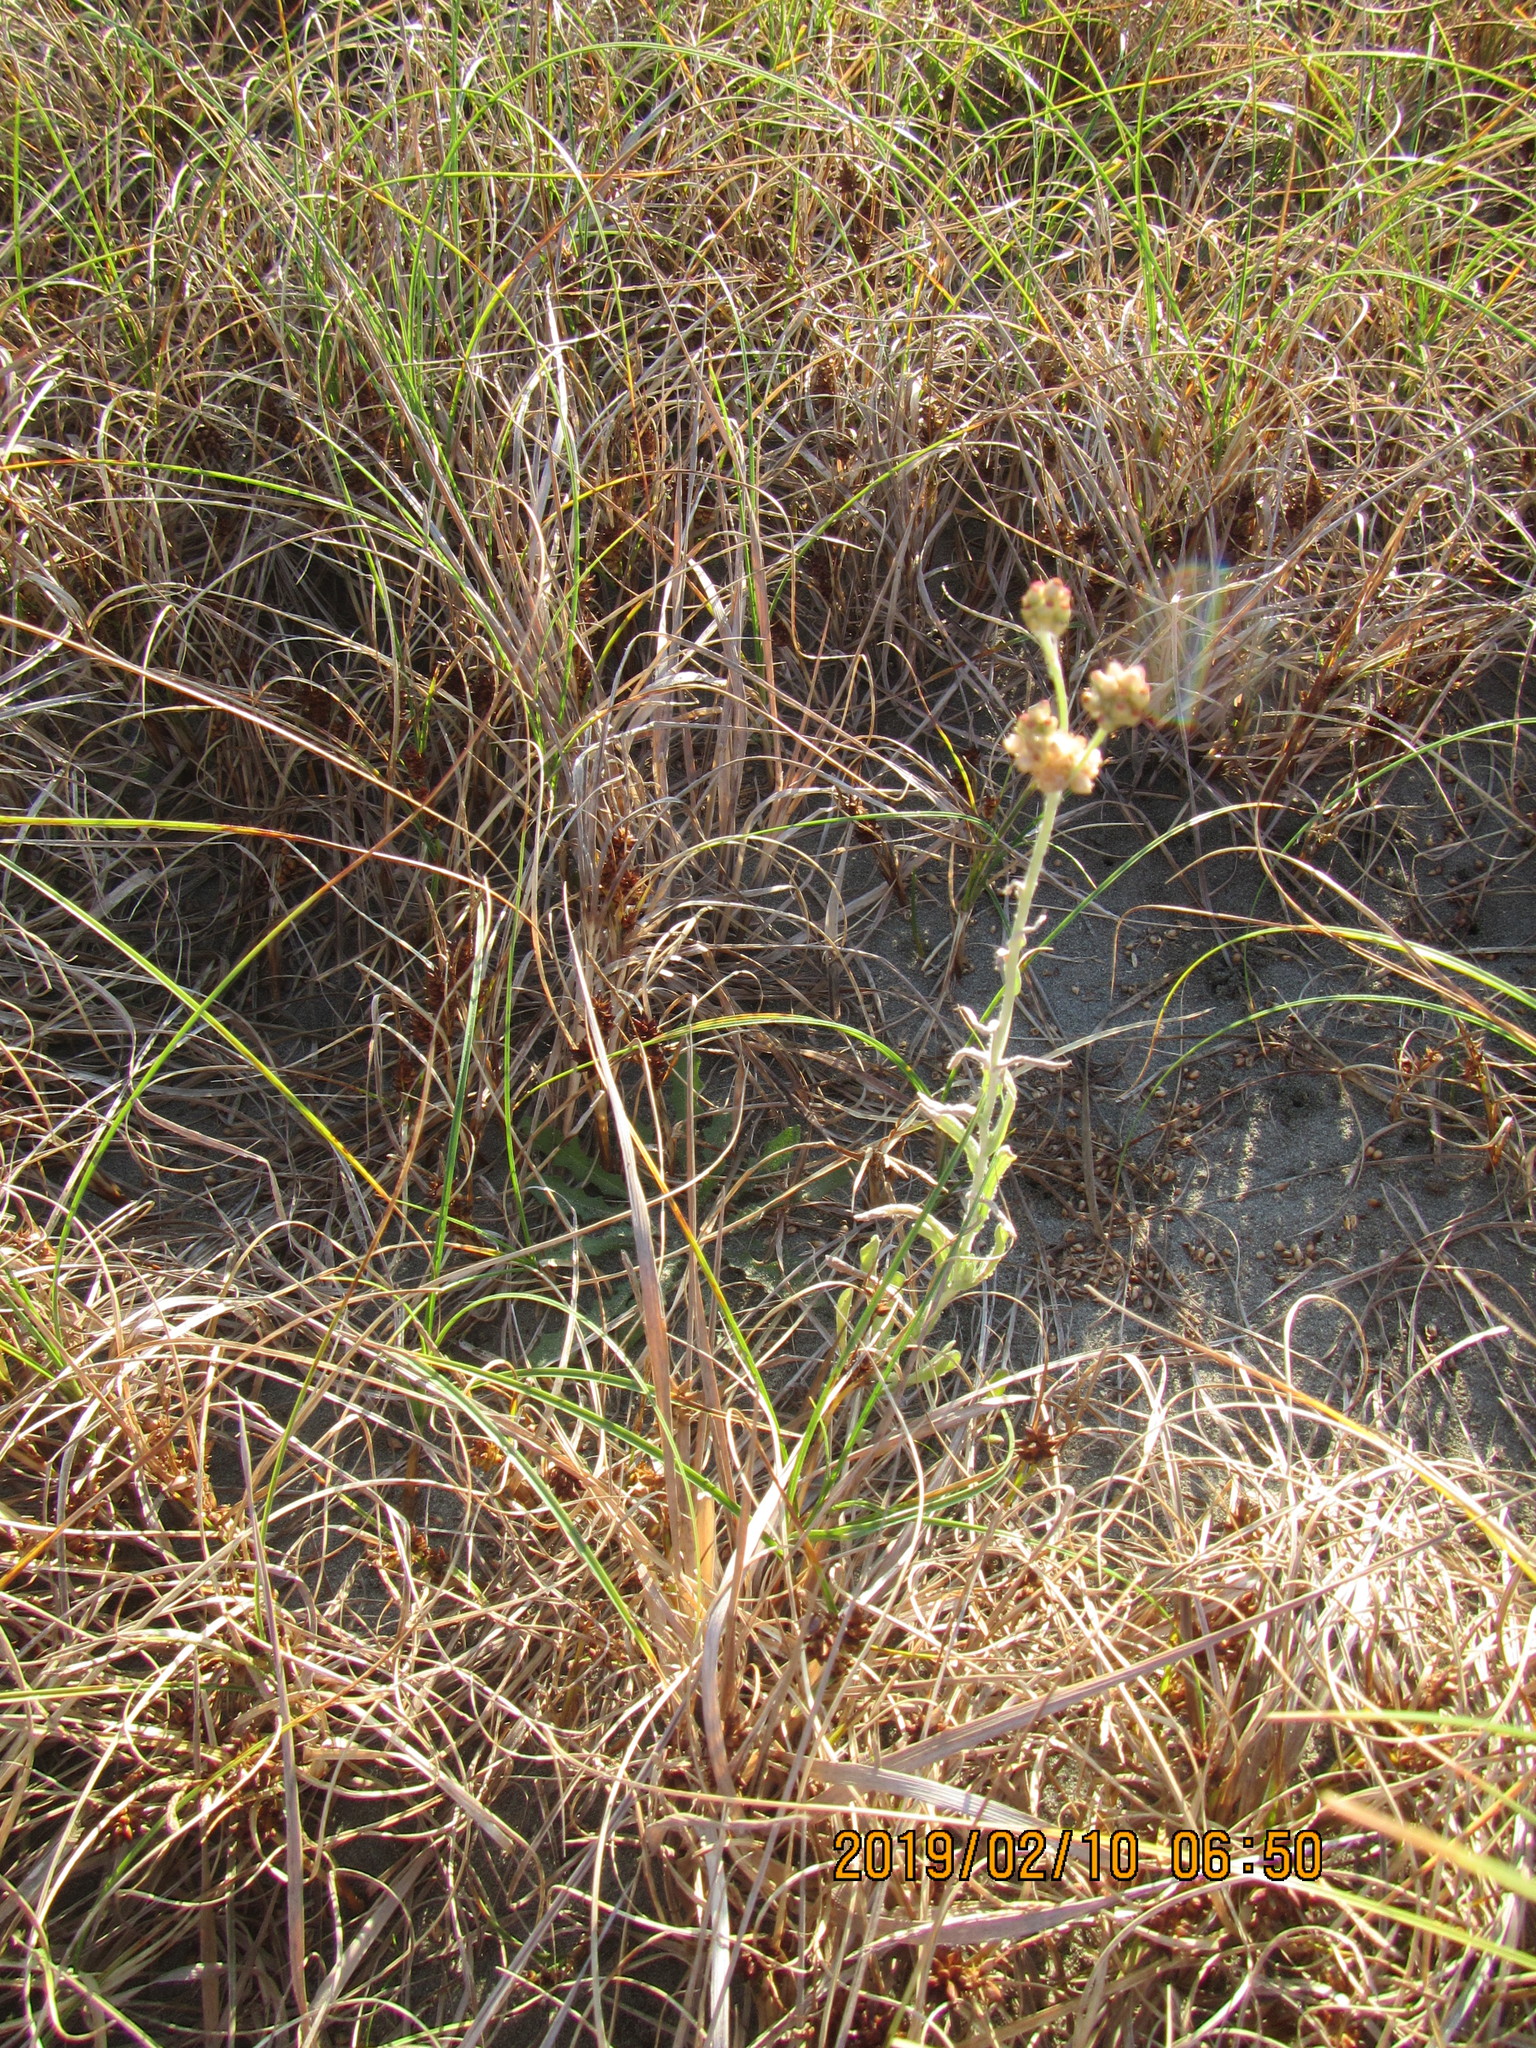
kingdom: Plantae
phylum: Tracheophyta
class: Magnoliopsida
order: Asterales
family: Asteraceae
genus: Helichrysum
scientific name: Helichrysum luteoalbum
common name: Daisy
